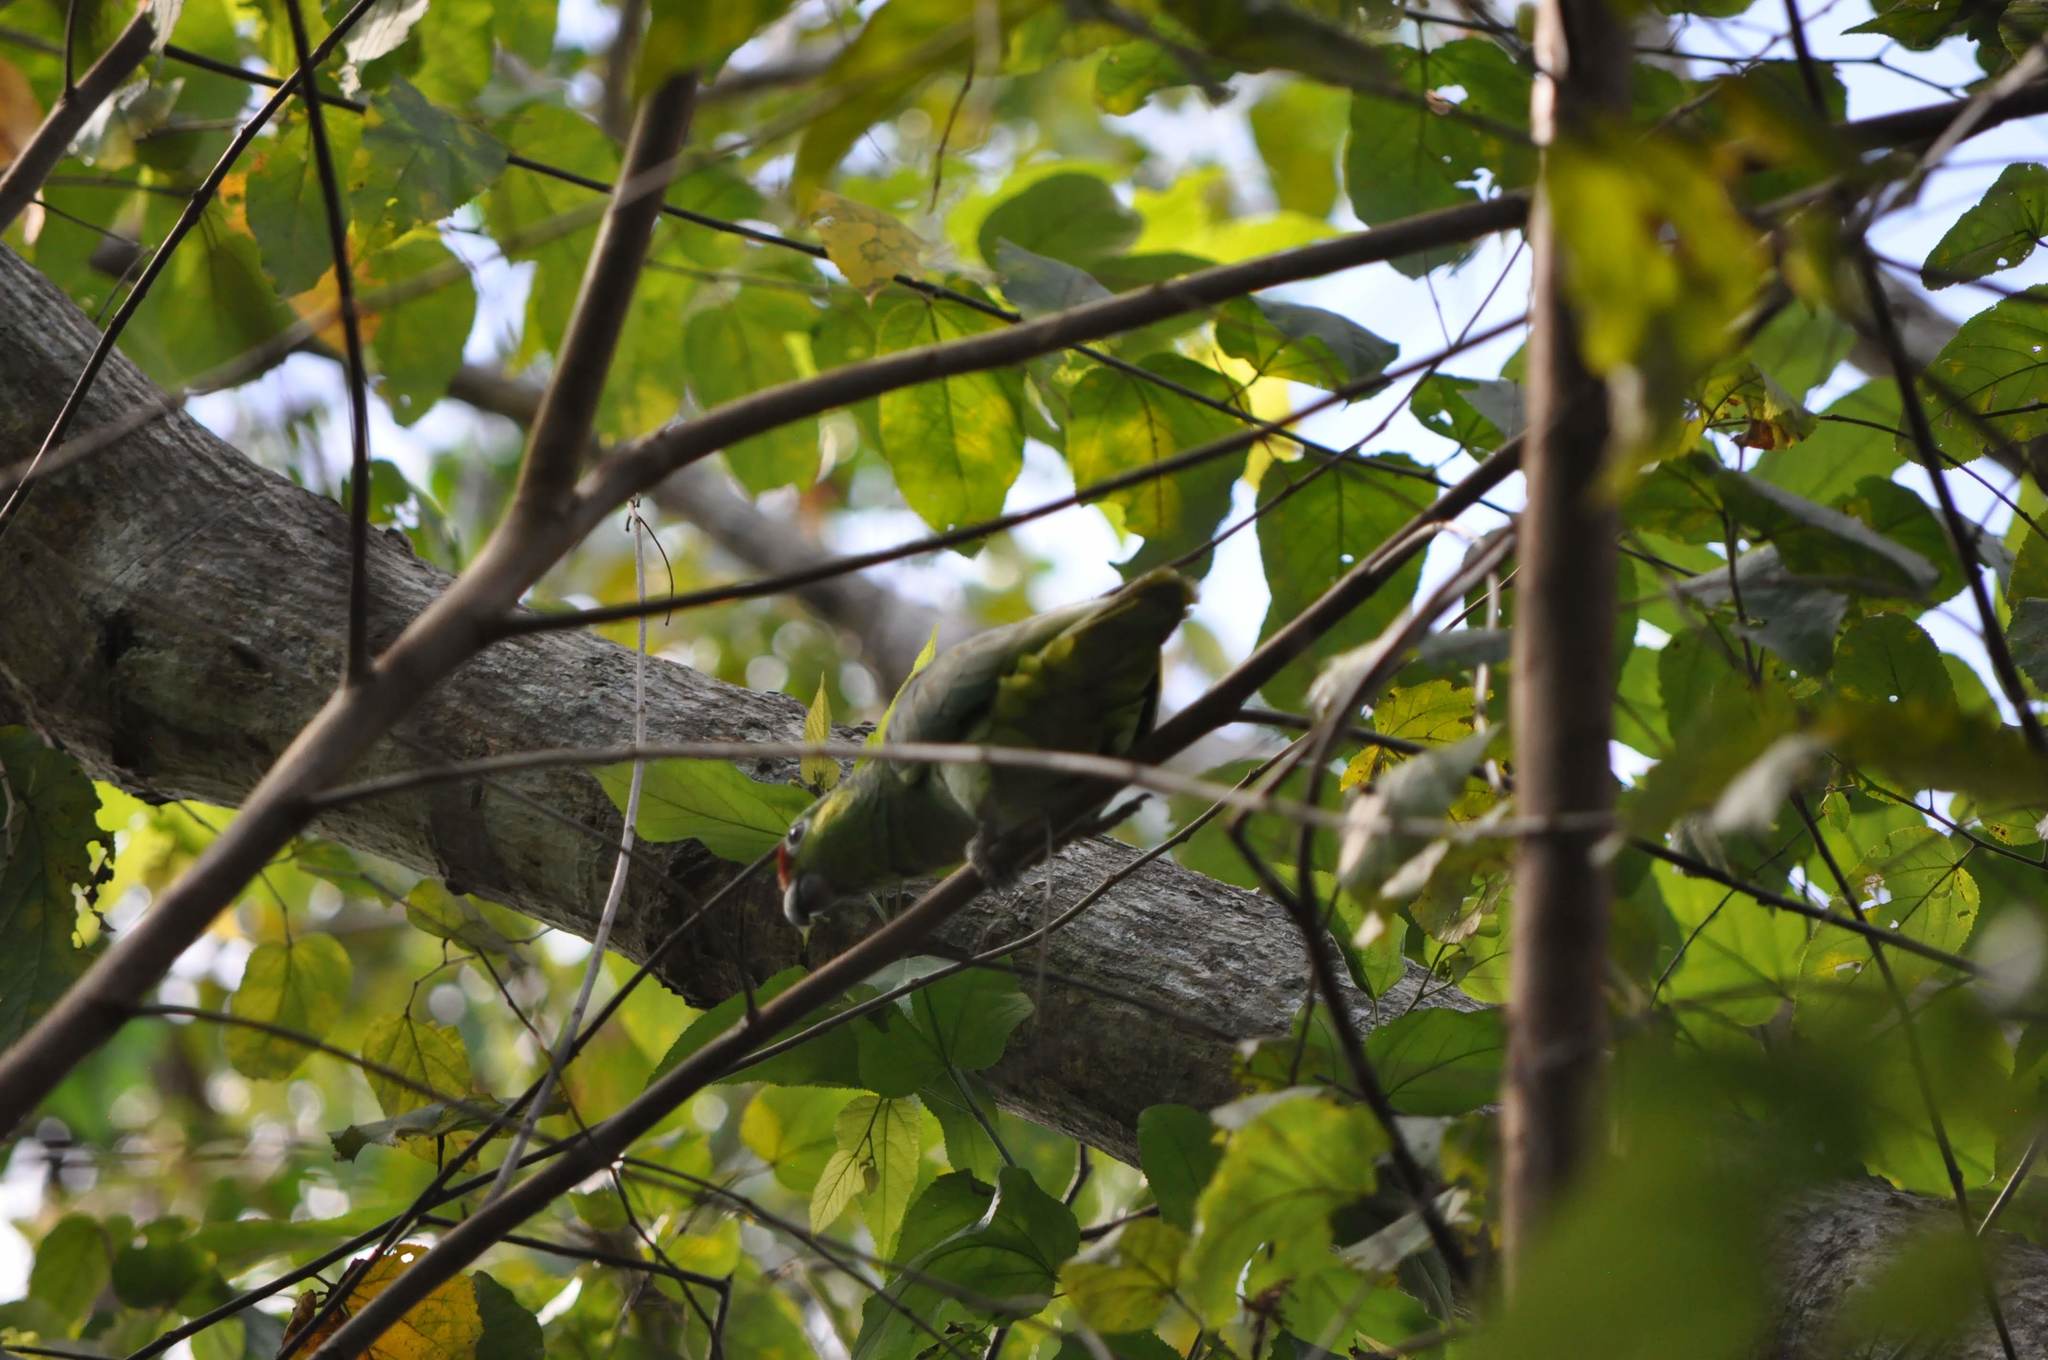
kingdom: Animalia
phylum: Chordata
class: Aves
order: Psittaciformes
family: Psittacidae
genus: Amazona
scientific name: Amazona autumnalis
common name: Red-lored amazon
